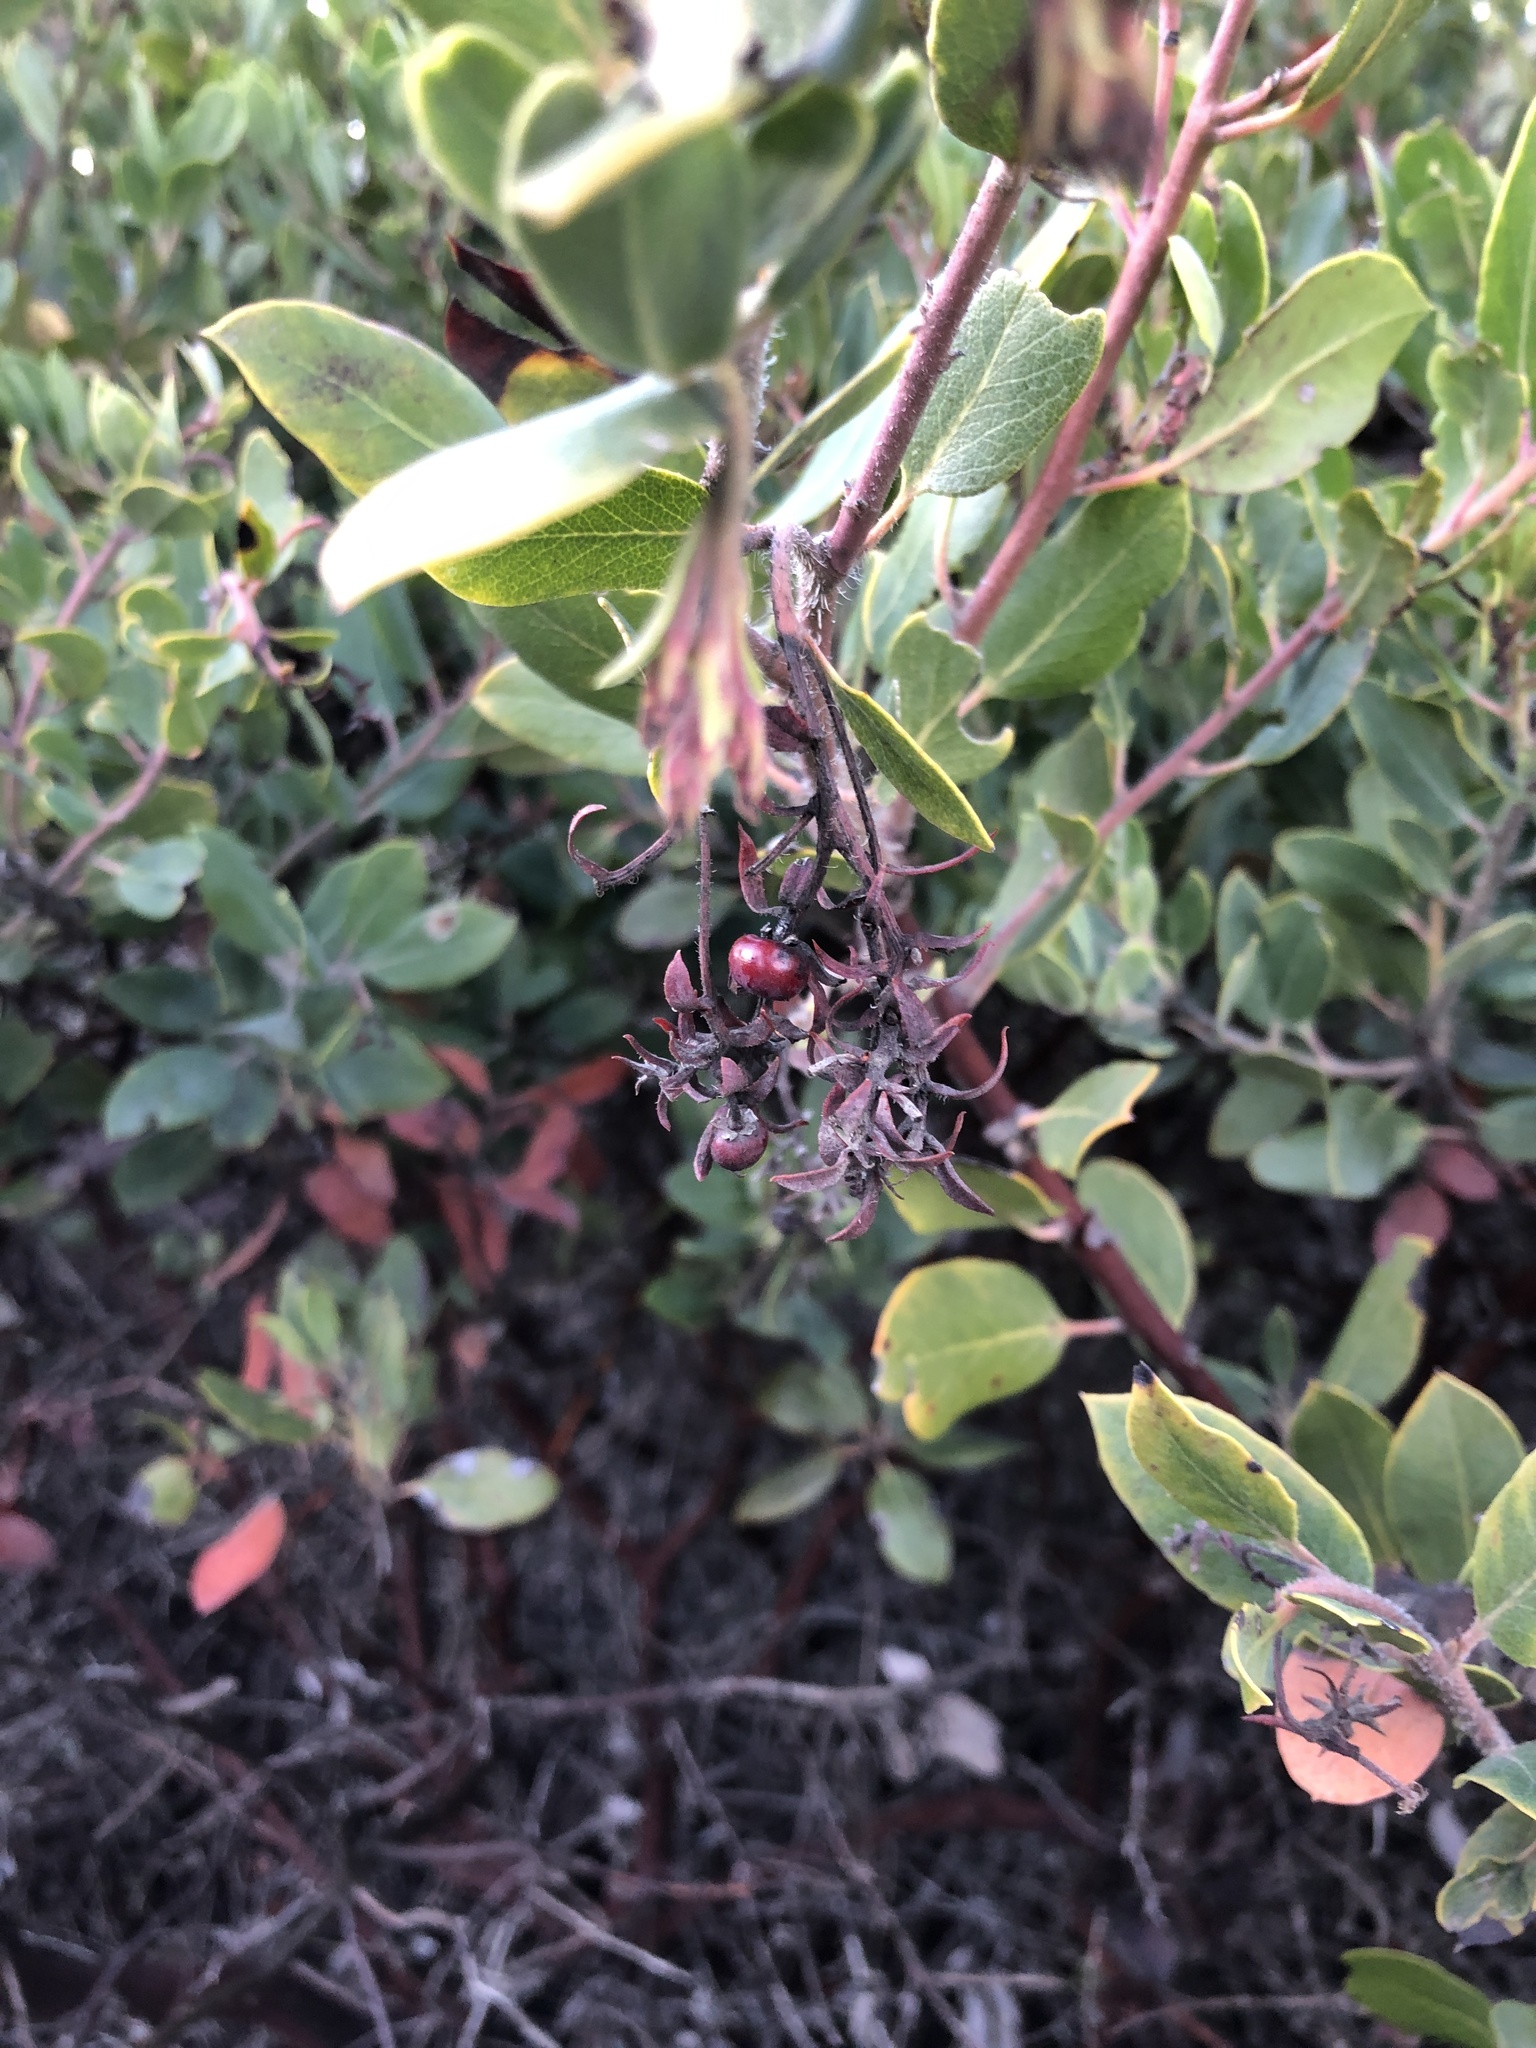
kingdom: Plantae
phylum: Tracheophyta
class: Magnoliopsida
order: Ericales
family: Ericaceae
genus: Arctostaphylos
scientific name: Arctostaphylos crustacea
